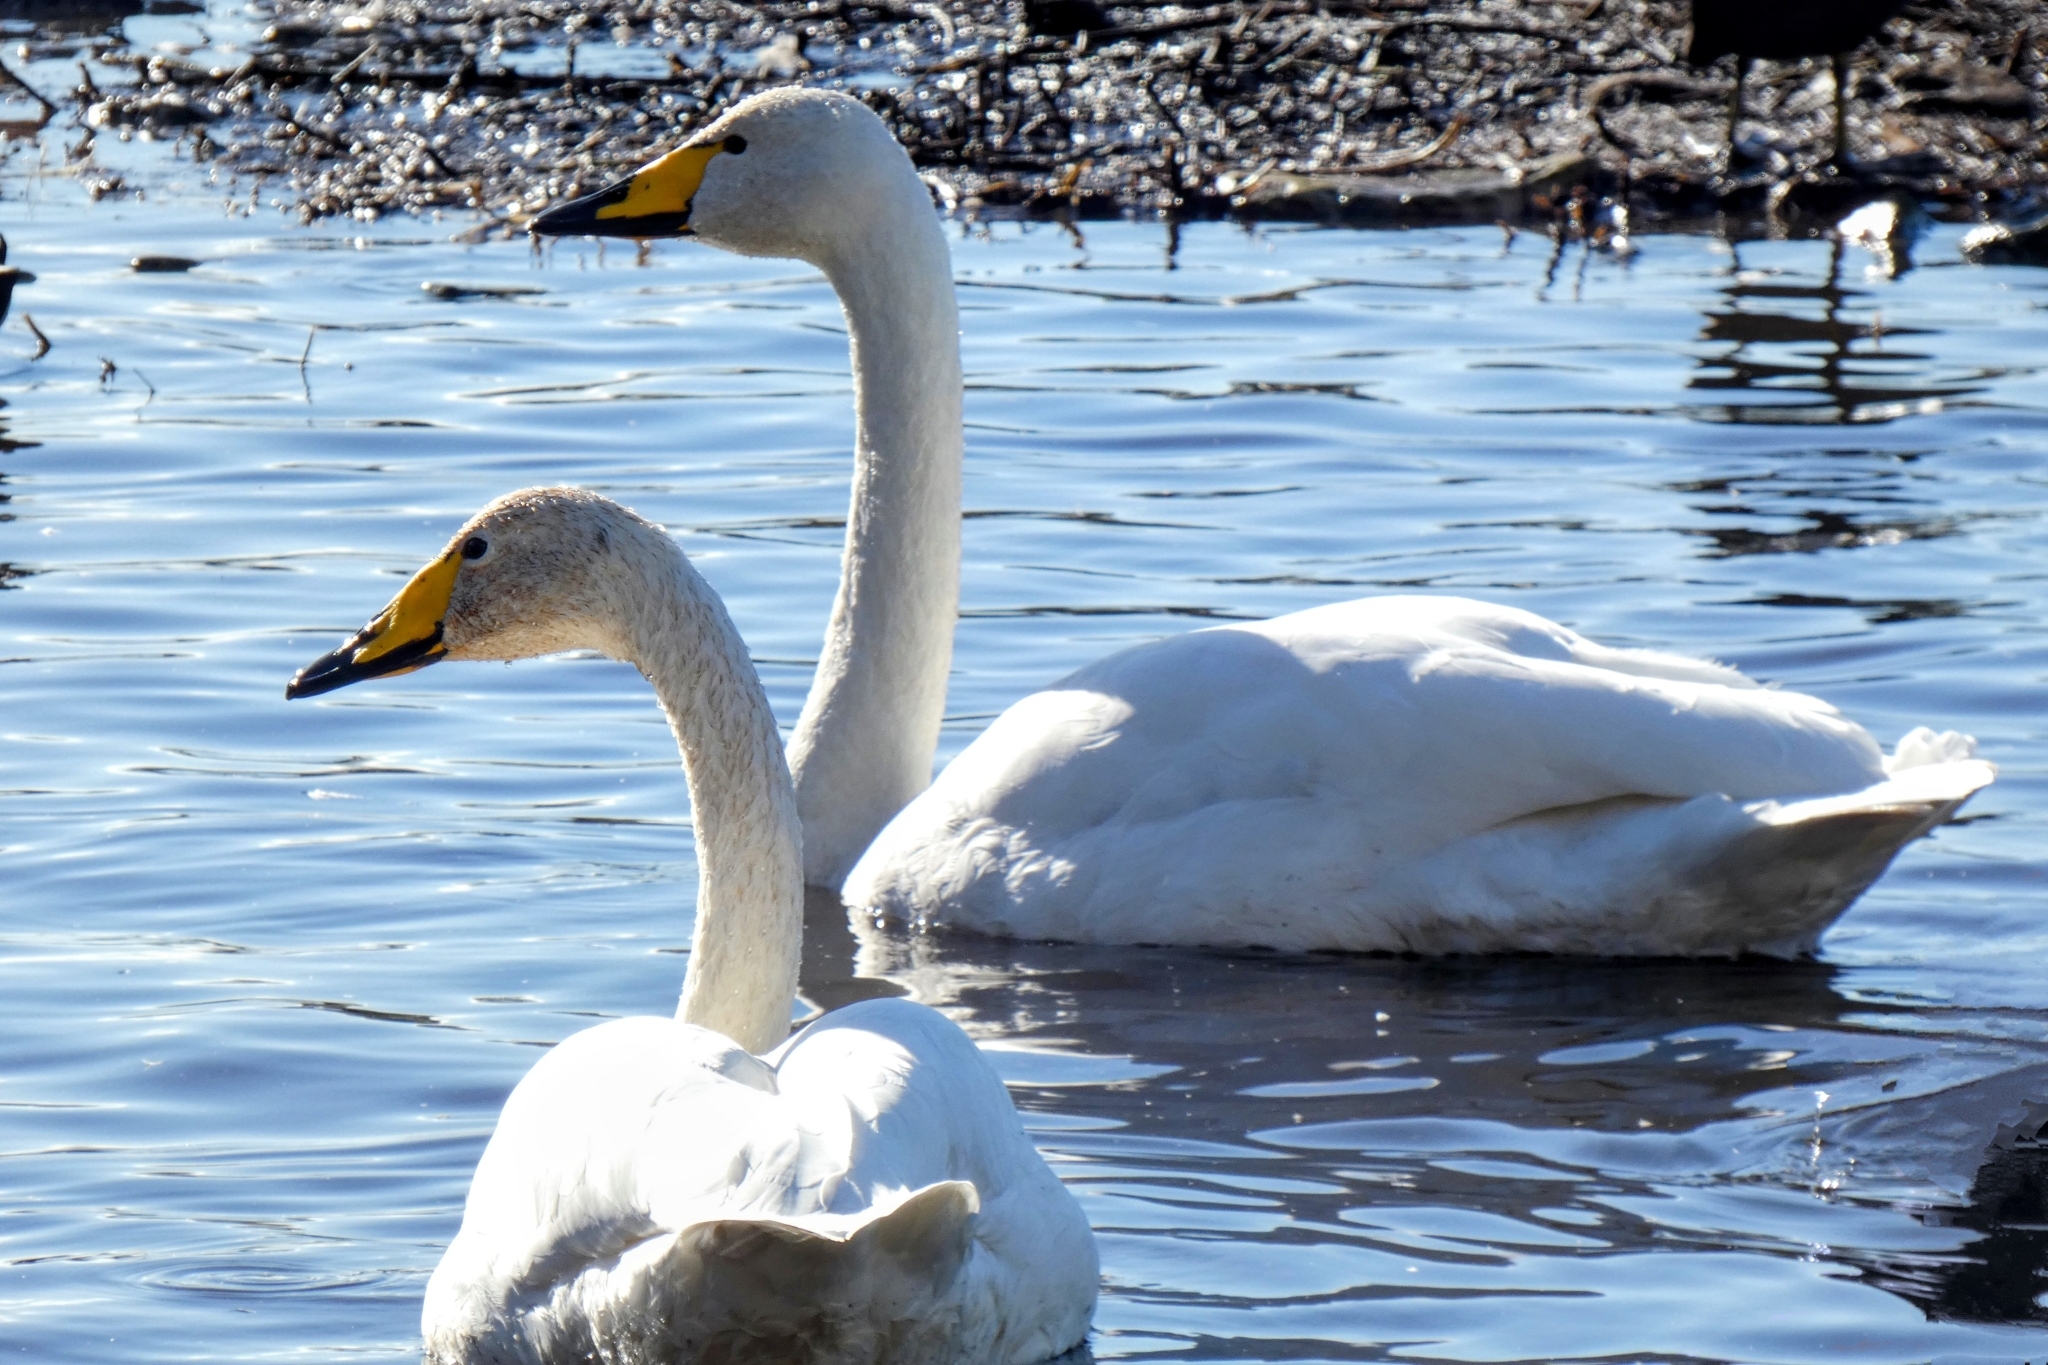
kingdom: Animalia
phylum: Chordata
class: Aves
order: Anseriformes
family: Anatidae
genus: Cygnus
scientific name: Cygnus cygnus
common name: Whooper swan
